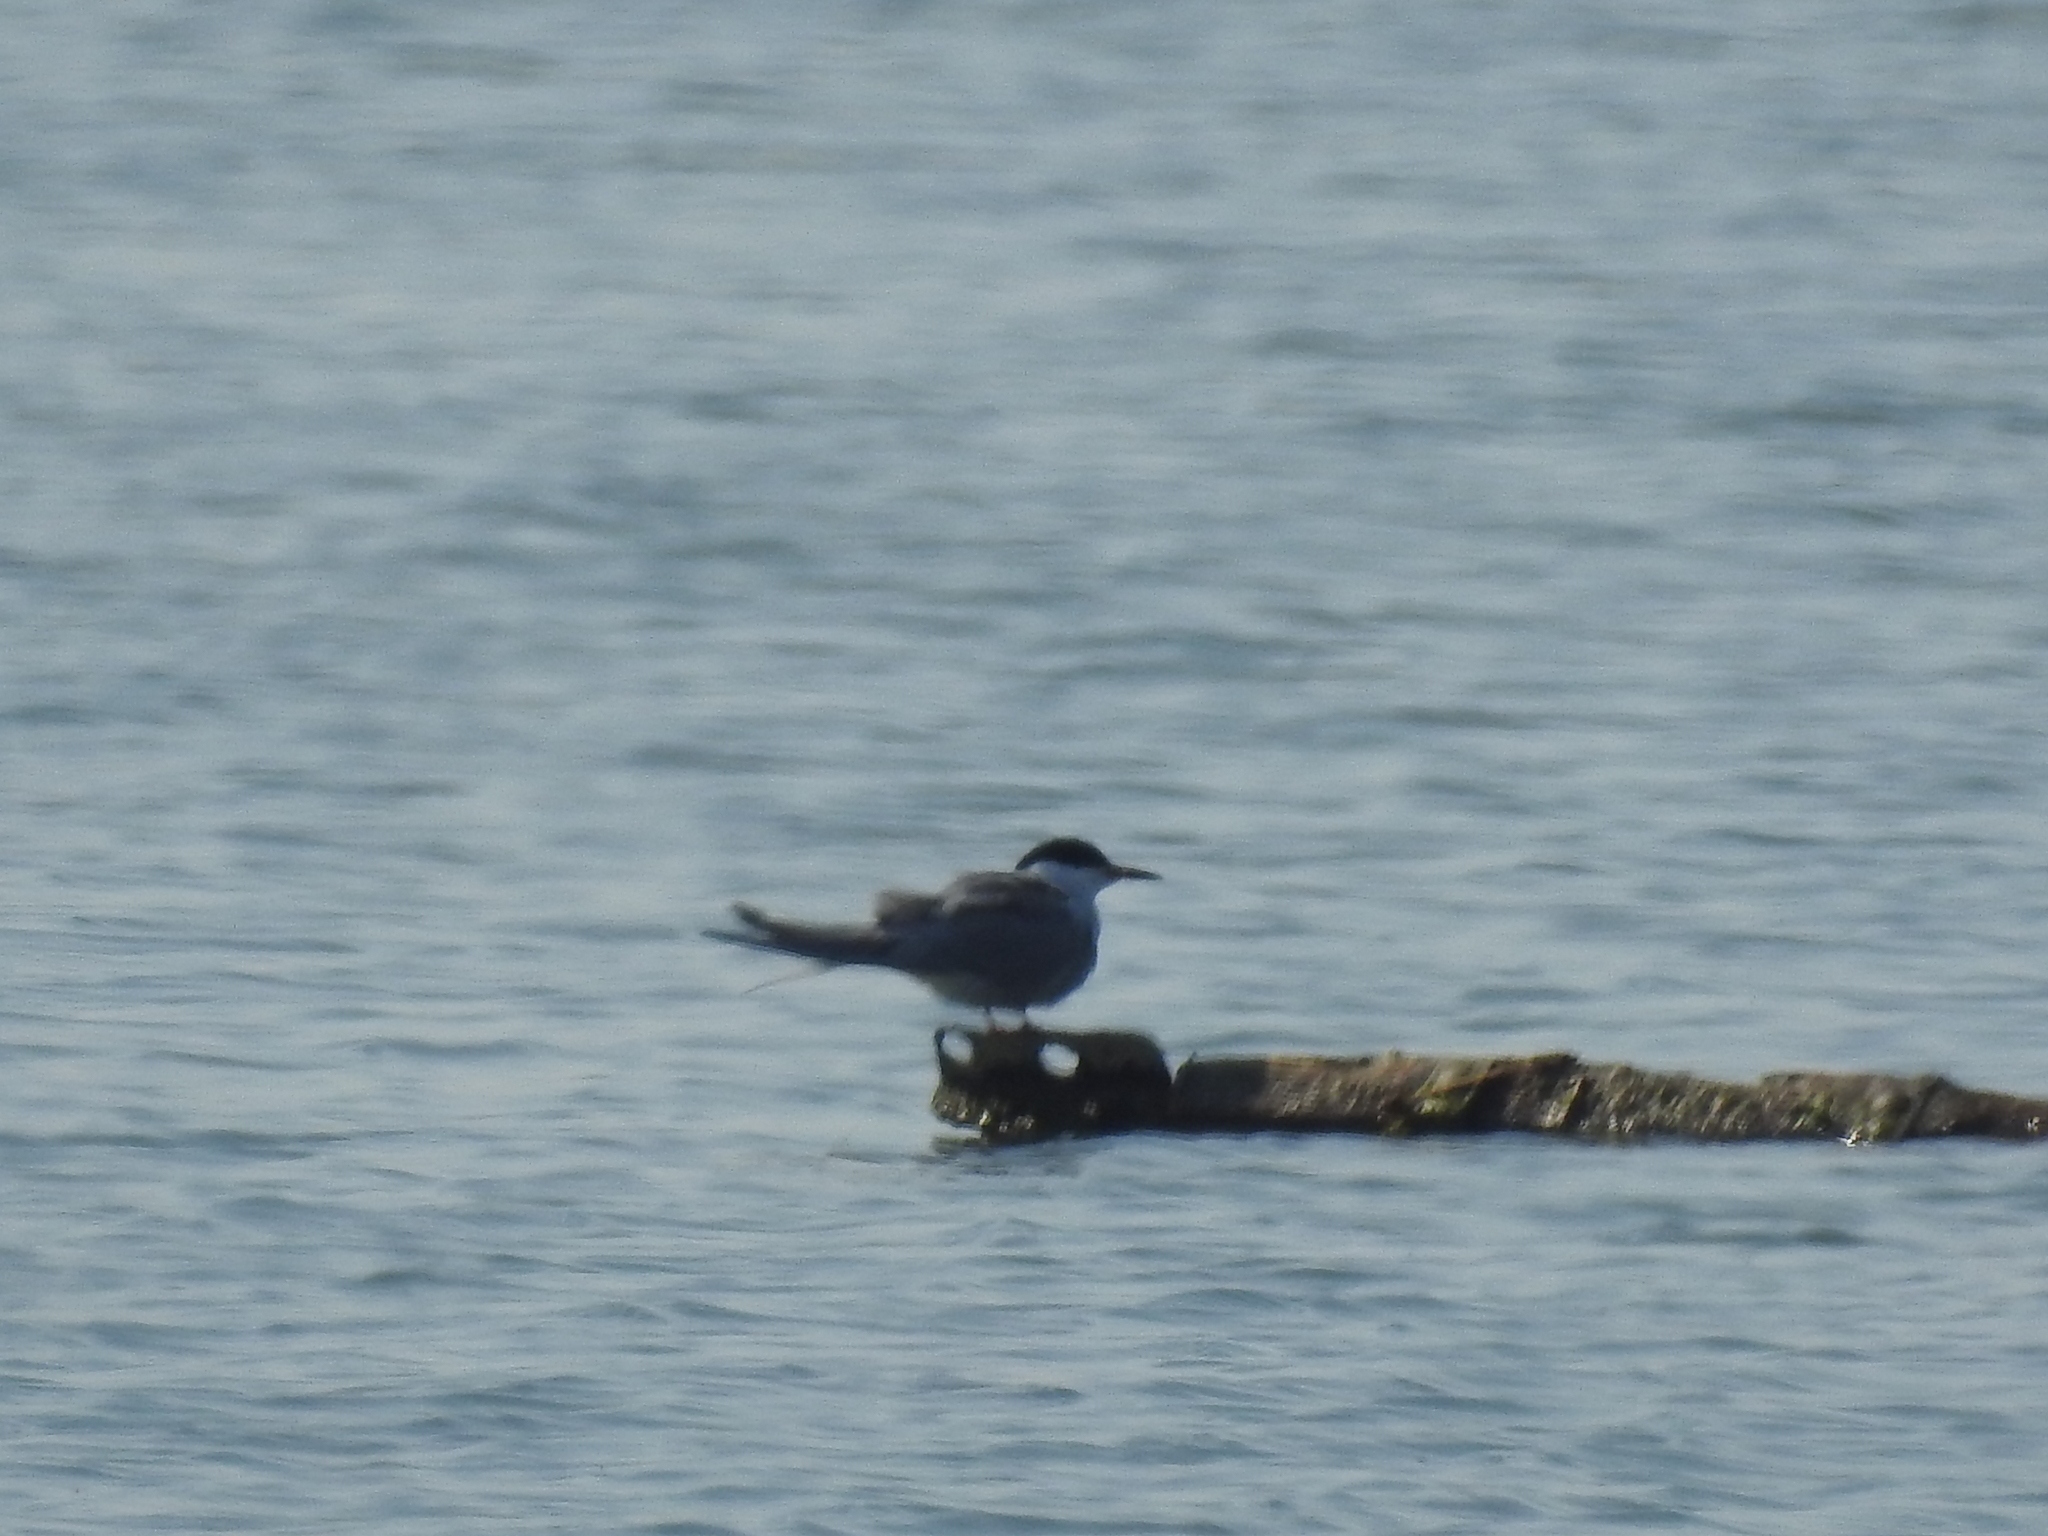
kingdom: Animalia
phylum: Chordata
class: Aves
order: Charadriiformes
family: Laridae
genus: Sterna
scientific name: Sterna hirundo
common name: Common tern
